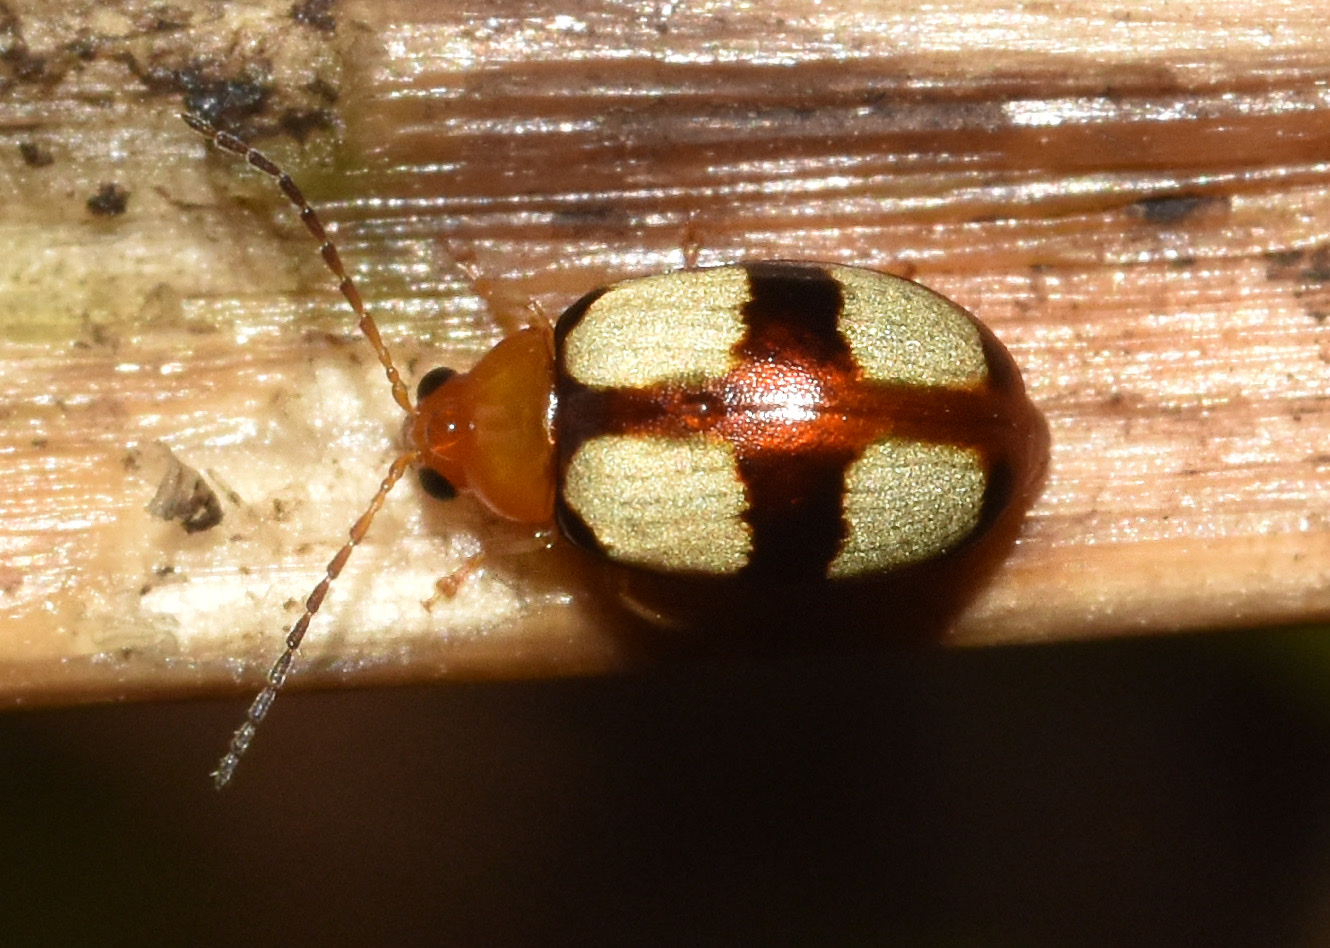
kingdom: Animalia
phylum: Arthropoda
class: Insecta
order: Coleoptera
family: Chrysomelidae
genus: Monolepta
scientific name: Monolepta
